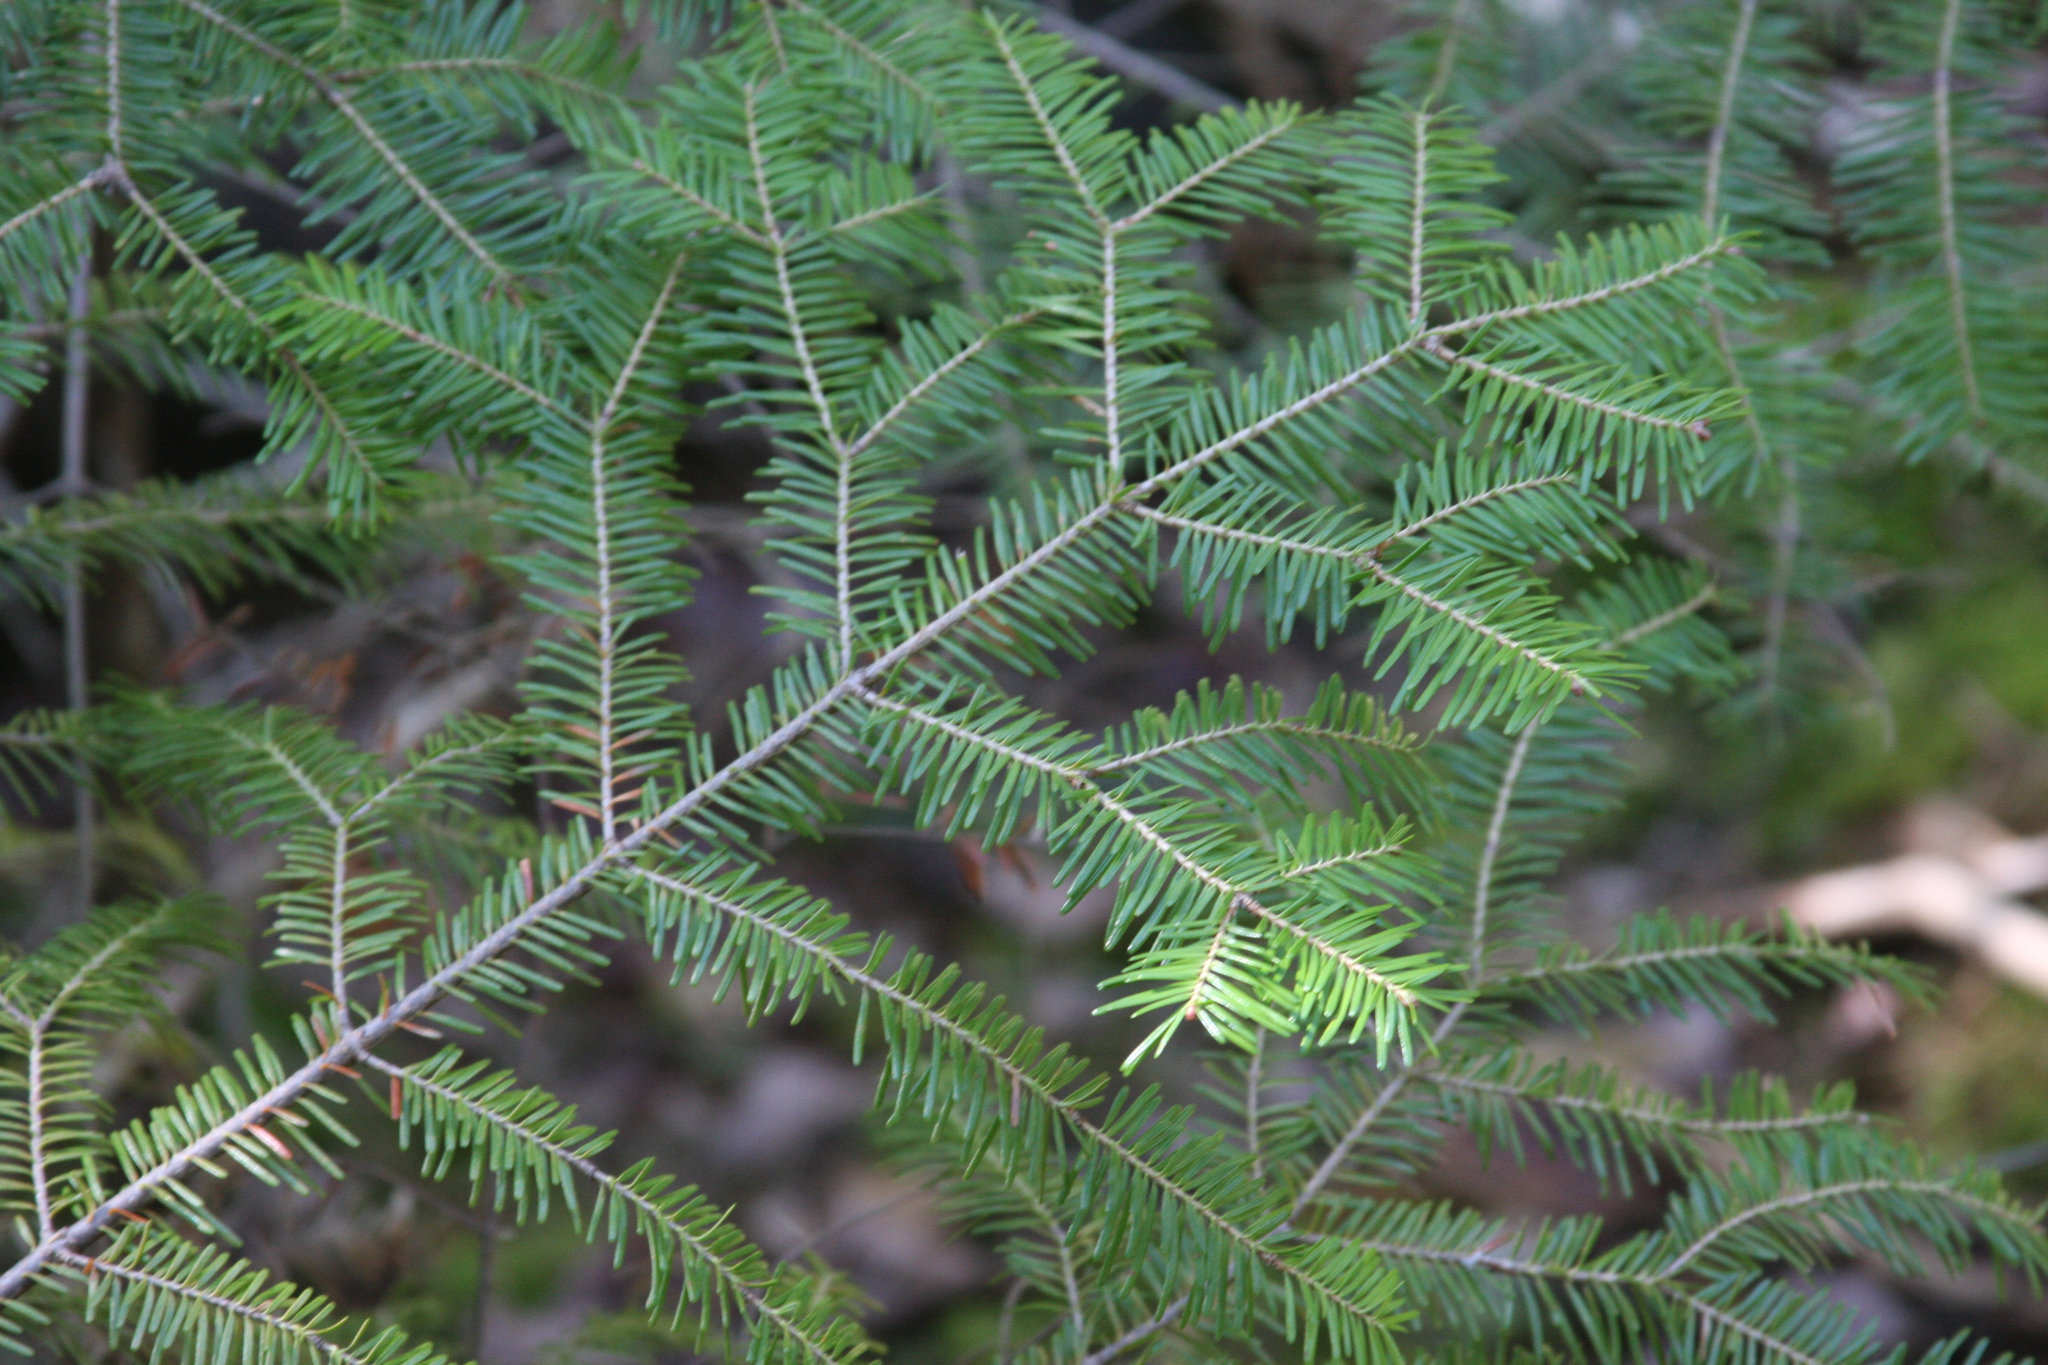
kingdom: Plantae
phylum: Tracheophyta
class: Pinopsida
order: Pinales
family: Pinaceae
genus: Abies
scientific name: Abies balsamea
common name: Balsam fir
